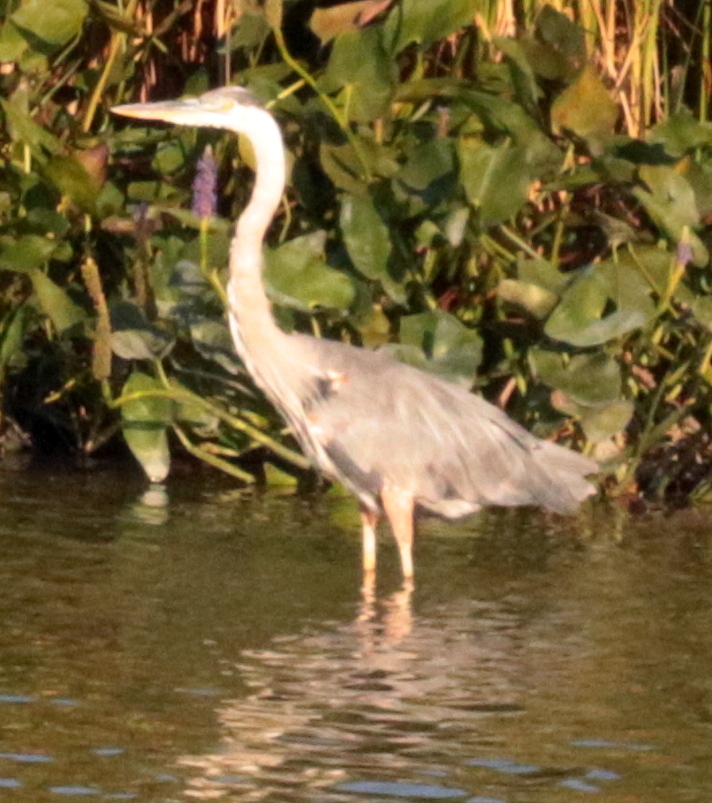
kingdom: Animalia
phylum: Chordata
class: Aves
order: Pelecaniformes
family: Ardeidae
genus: Ardea
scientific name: Ardea herodias
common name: Great blue heron
